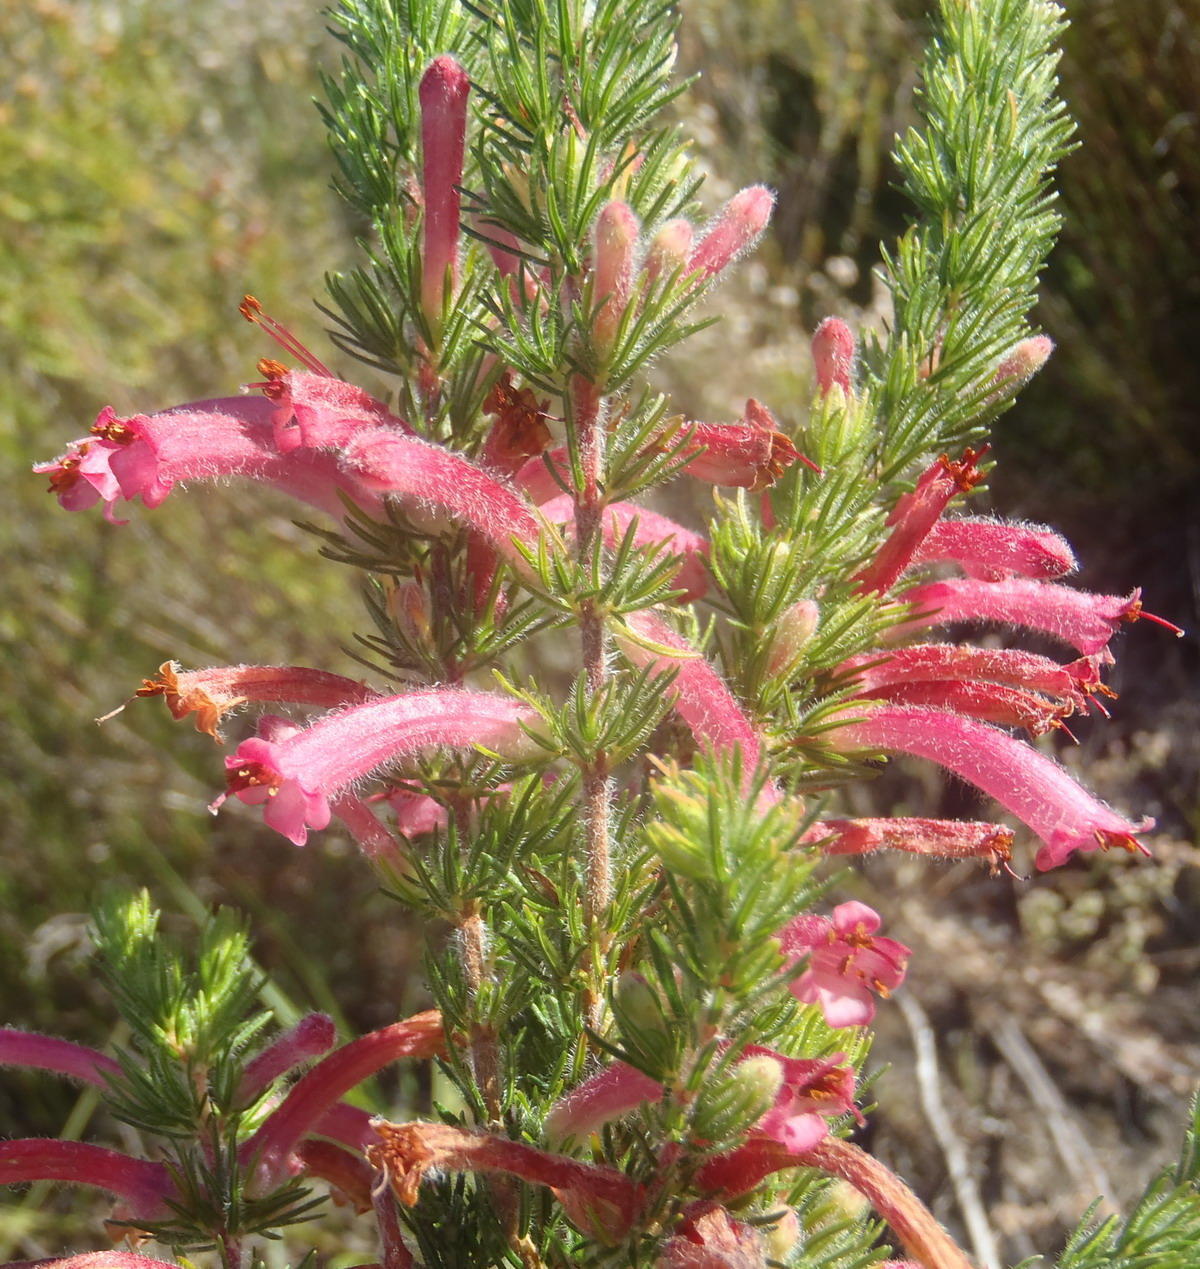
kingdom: Plantae
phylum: Tracheophyta
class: Magnoliopsida
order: Ericales
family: Ericaceae
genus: Erica
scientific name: Erica curviflora
